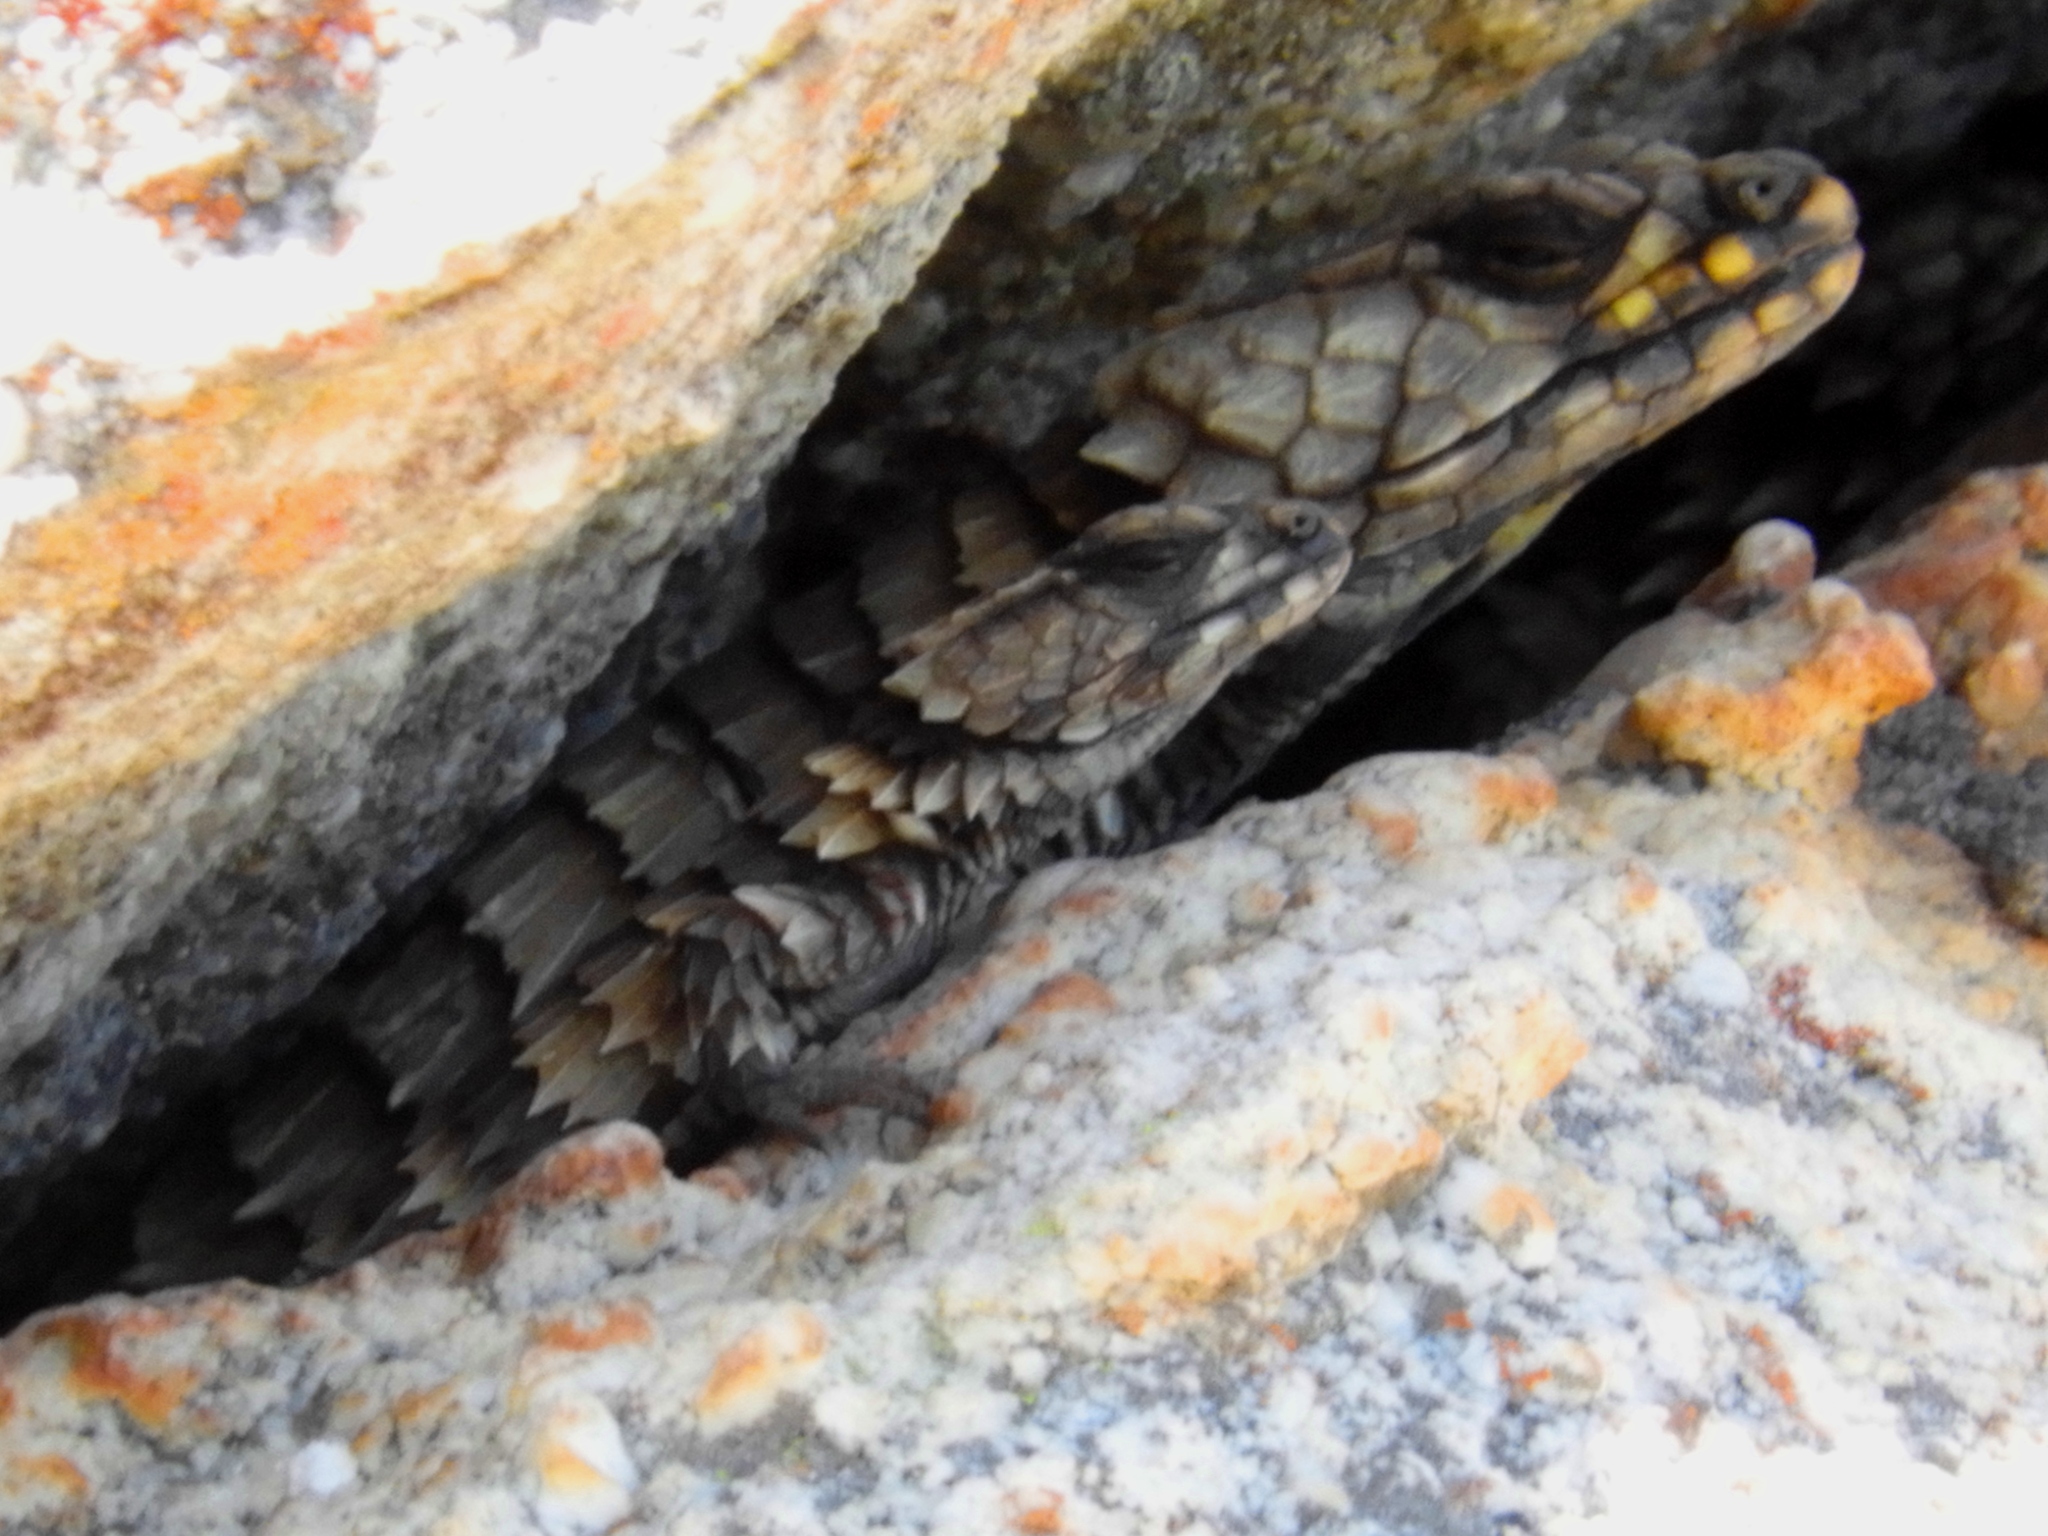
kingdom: Animalia
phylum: Chordata
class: Squamata
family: Cordylidae
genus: Ouroborus
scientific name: Ouroborus cataphractus
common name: Armadillo girdled lizard
